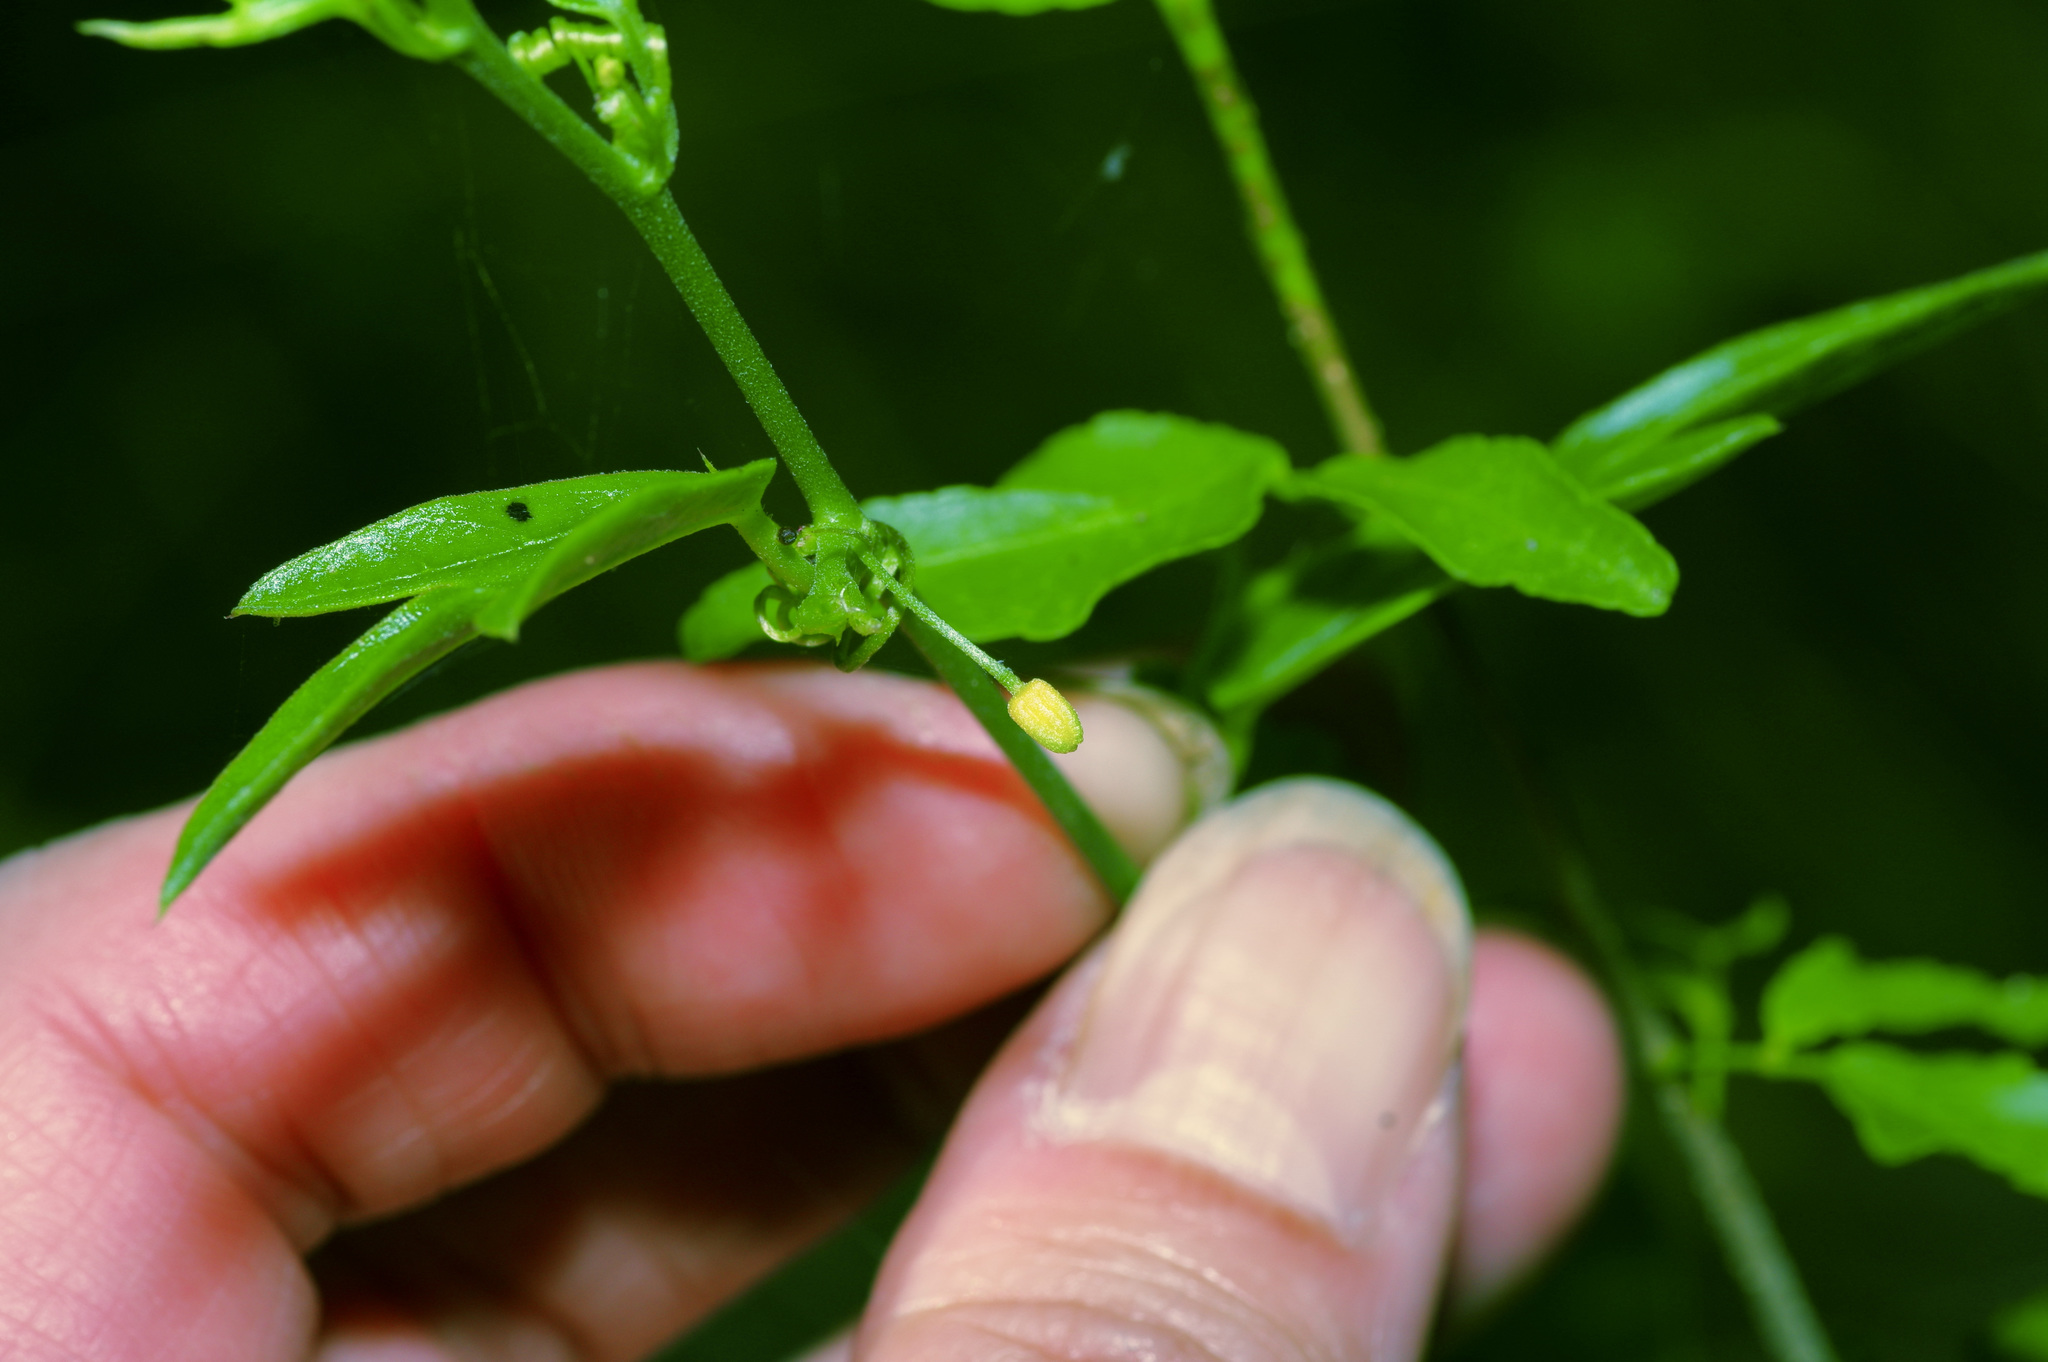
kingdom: Plantae
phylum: Tracheophyta
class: Magnoliopsida
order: Malpighiales
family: Passifloraceae
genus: Passiflora
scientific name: Passiflora pallida
